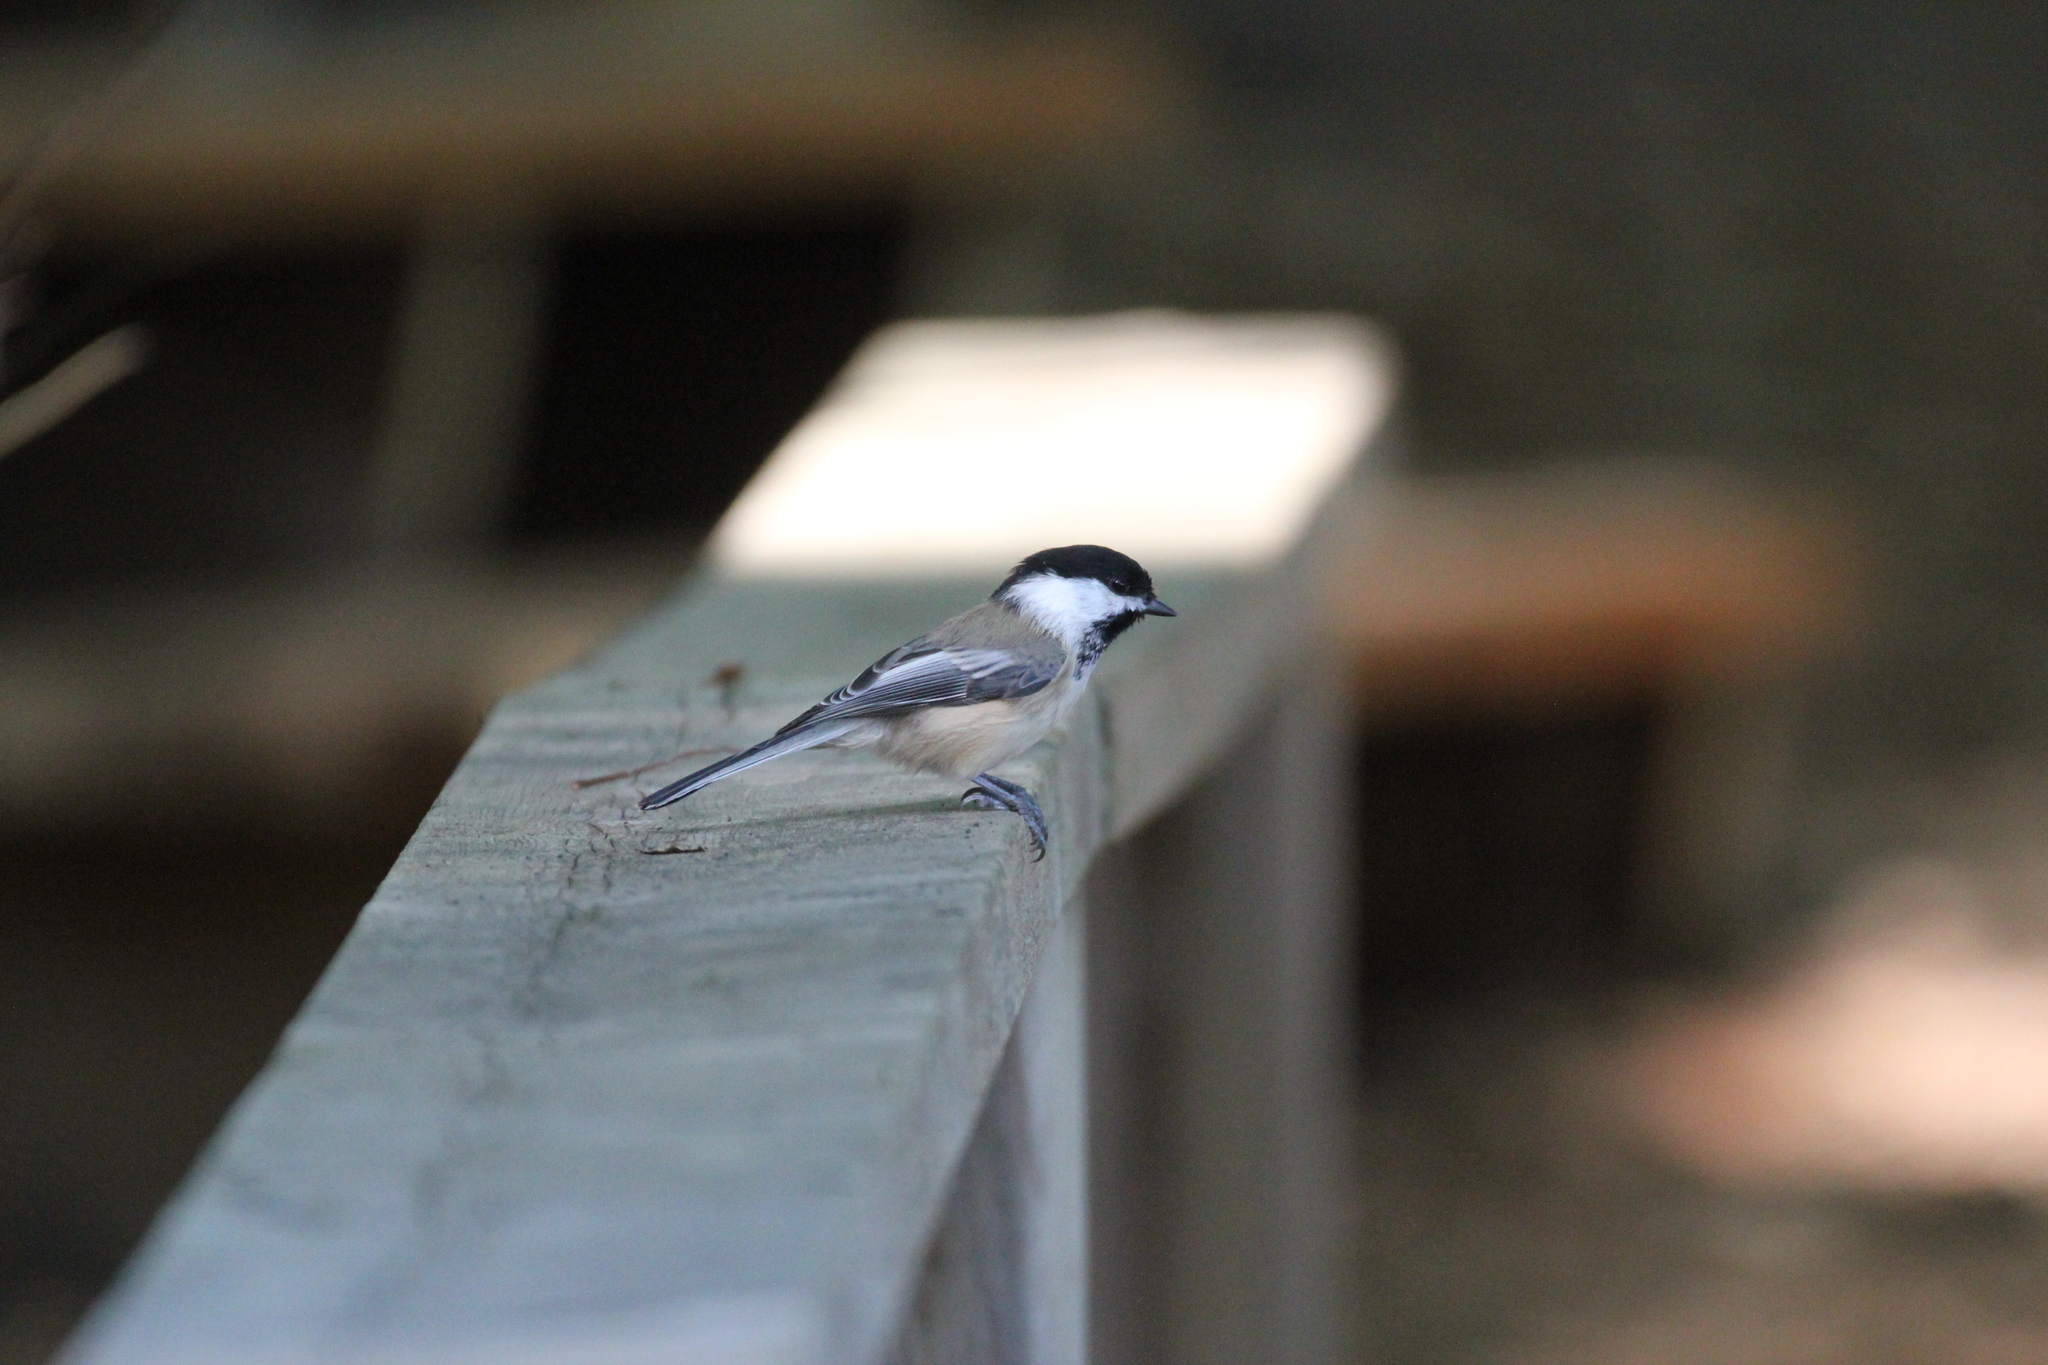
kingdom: Animalia
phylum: Chordata
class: Aves
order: Passeriformes
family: Paridae
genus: Poecile
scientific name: Poecile atricapillus
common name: Black-capped chickadee
